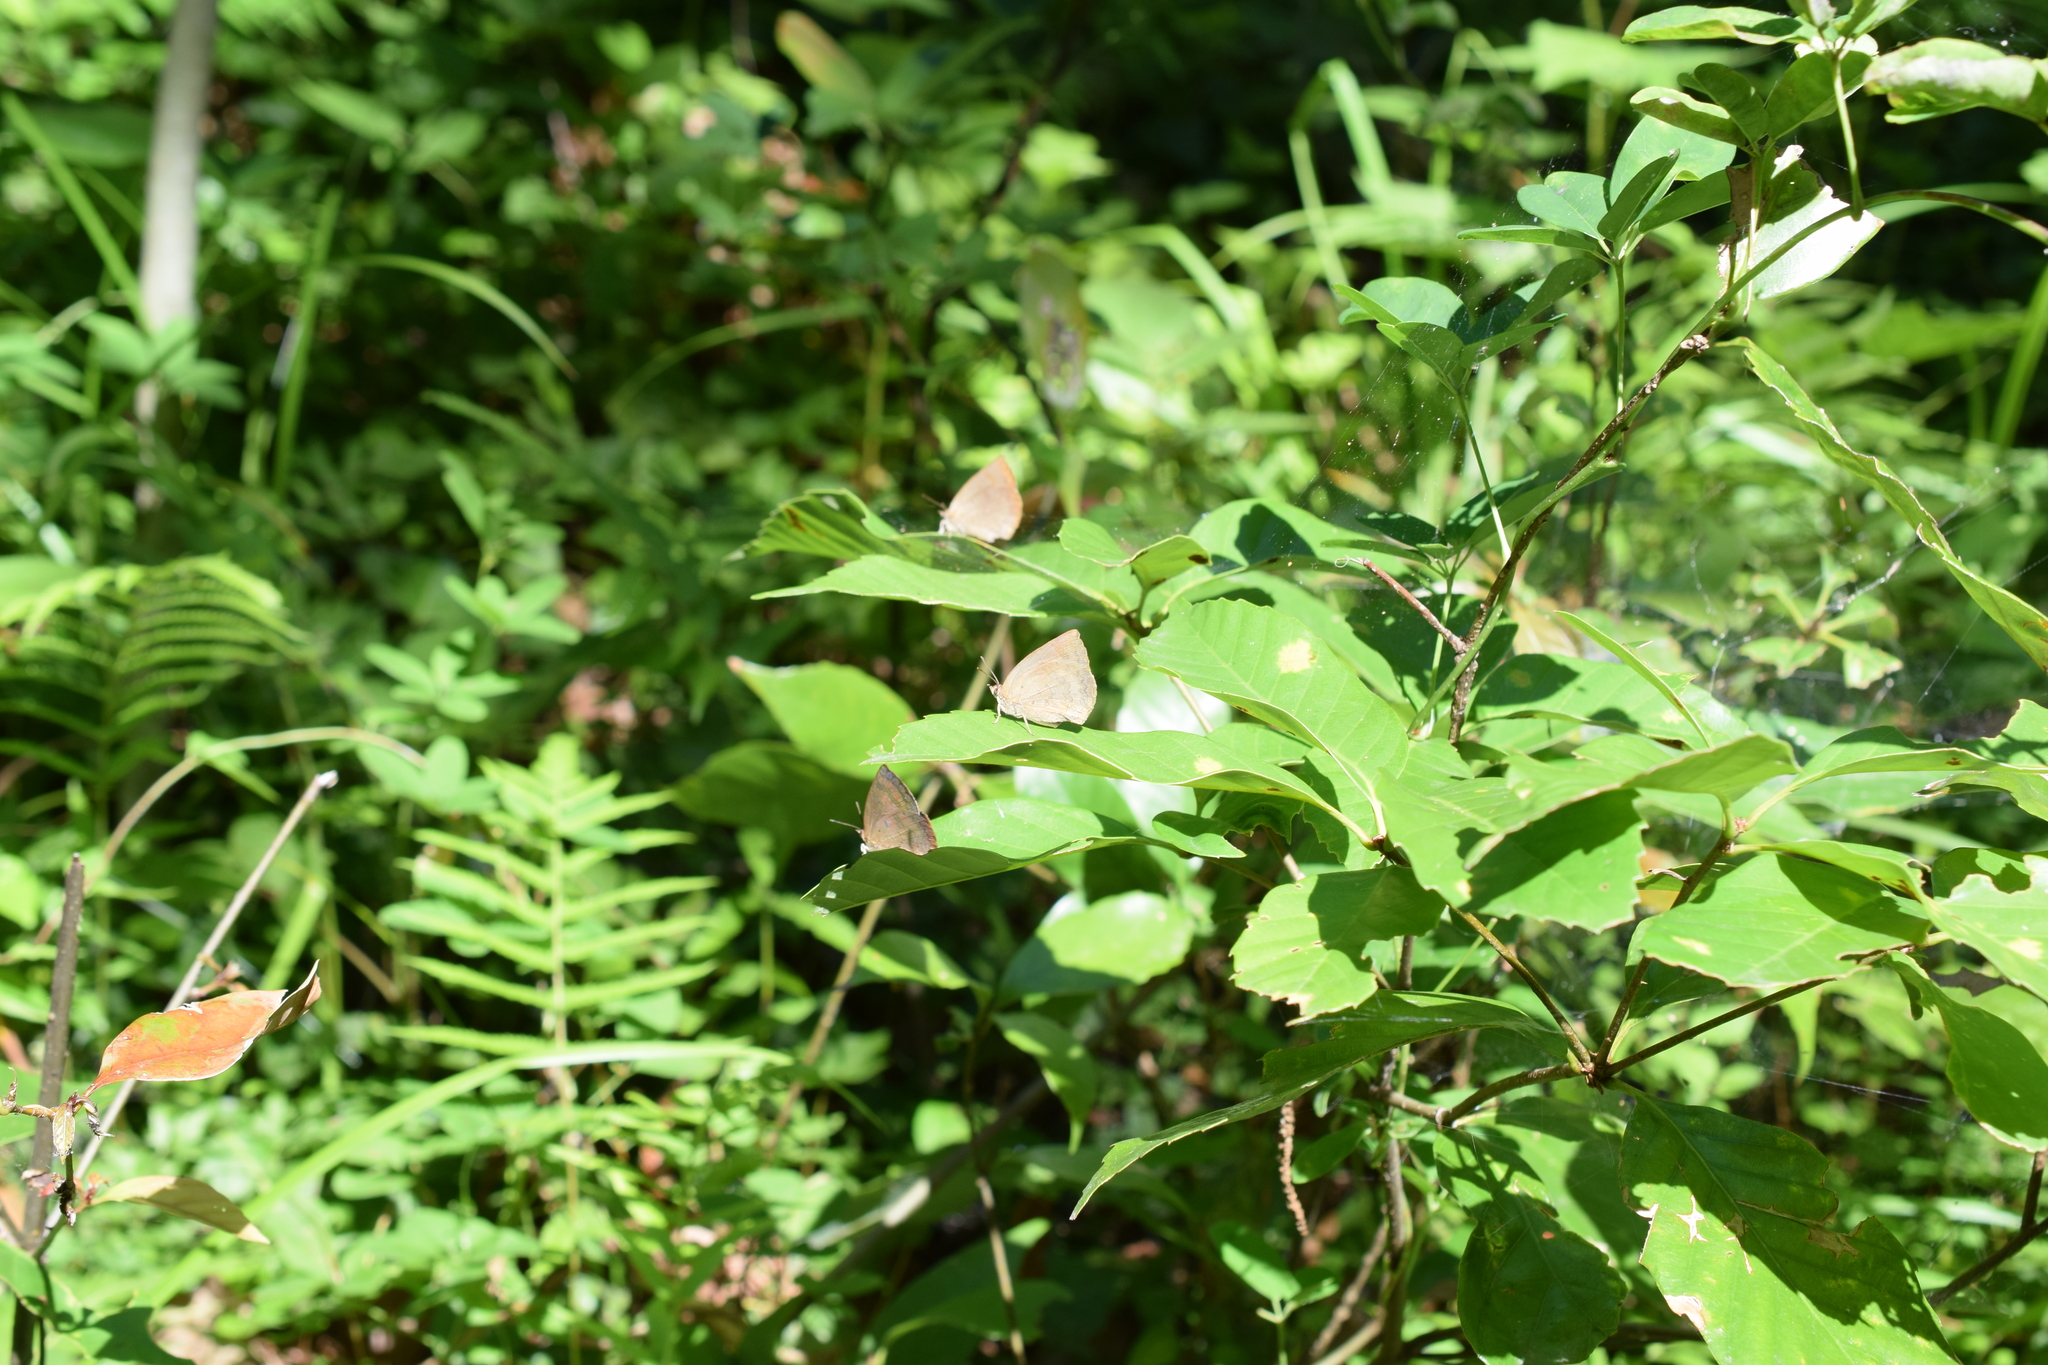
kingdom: Animalia
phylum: Arthropoda
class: Insecta
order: Lepidoptera
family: Lycaenidae
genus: Arhopala
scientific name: Arhopala japonica
